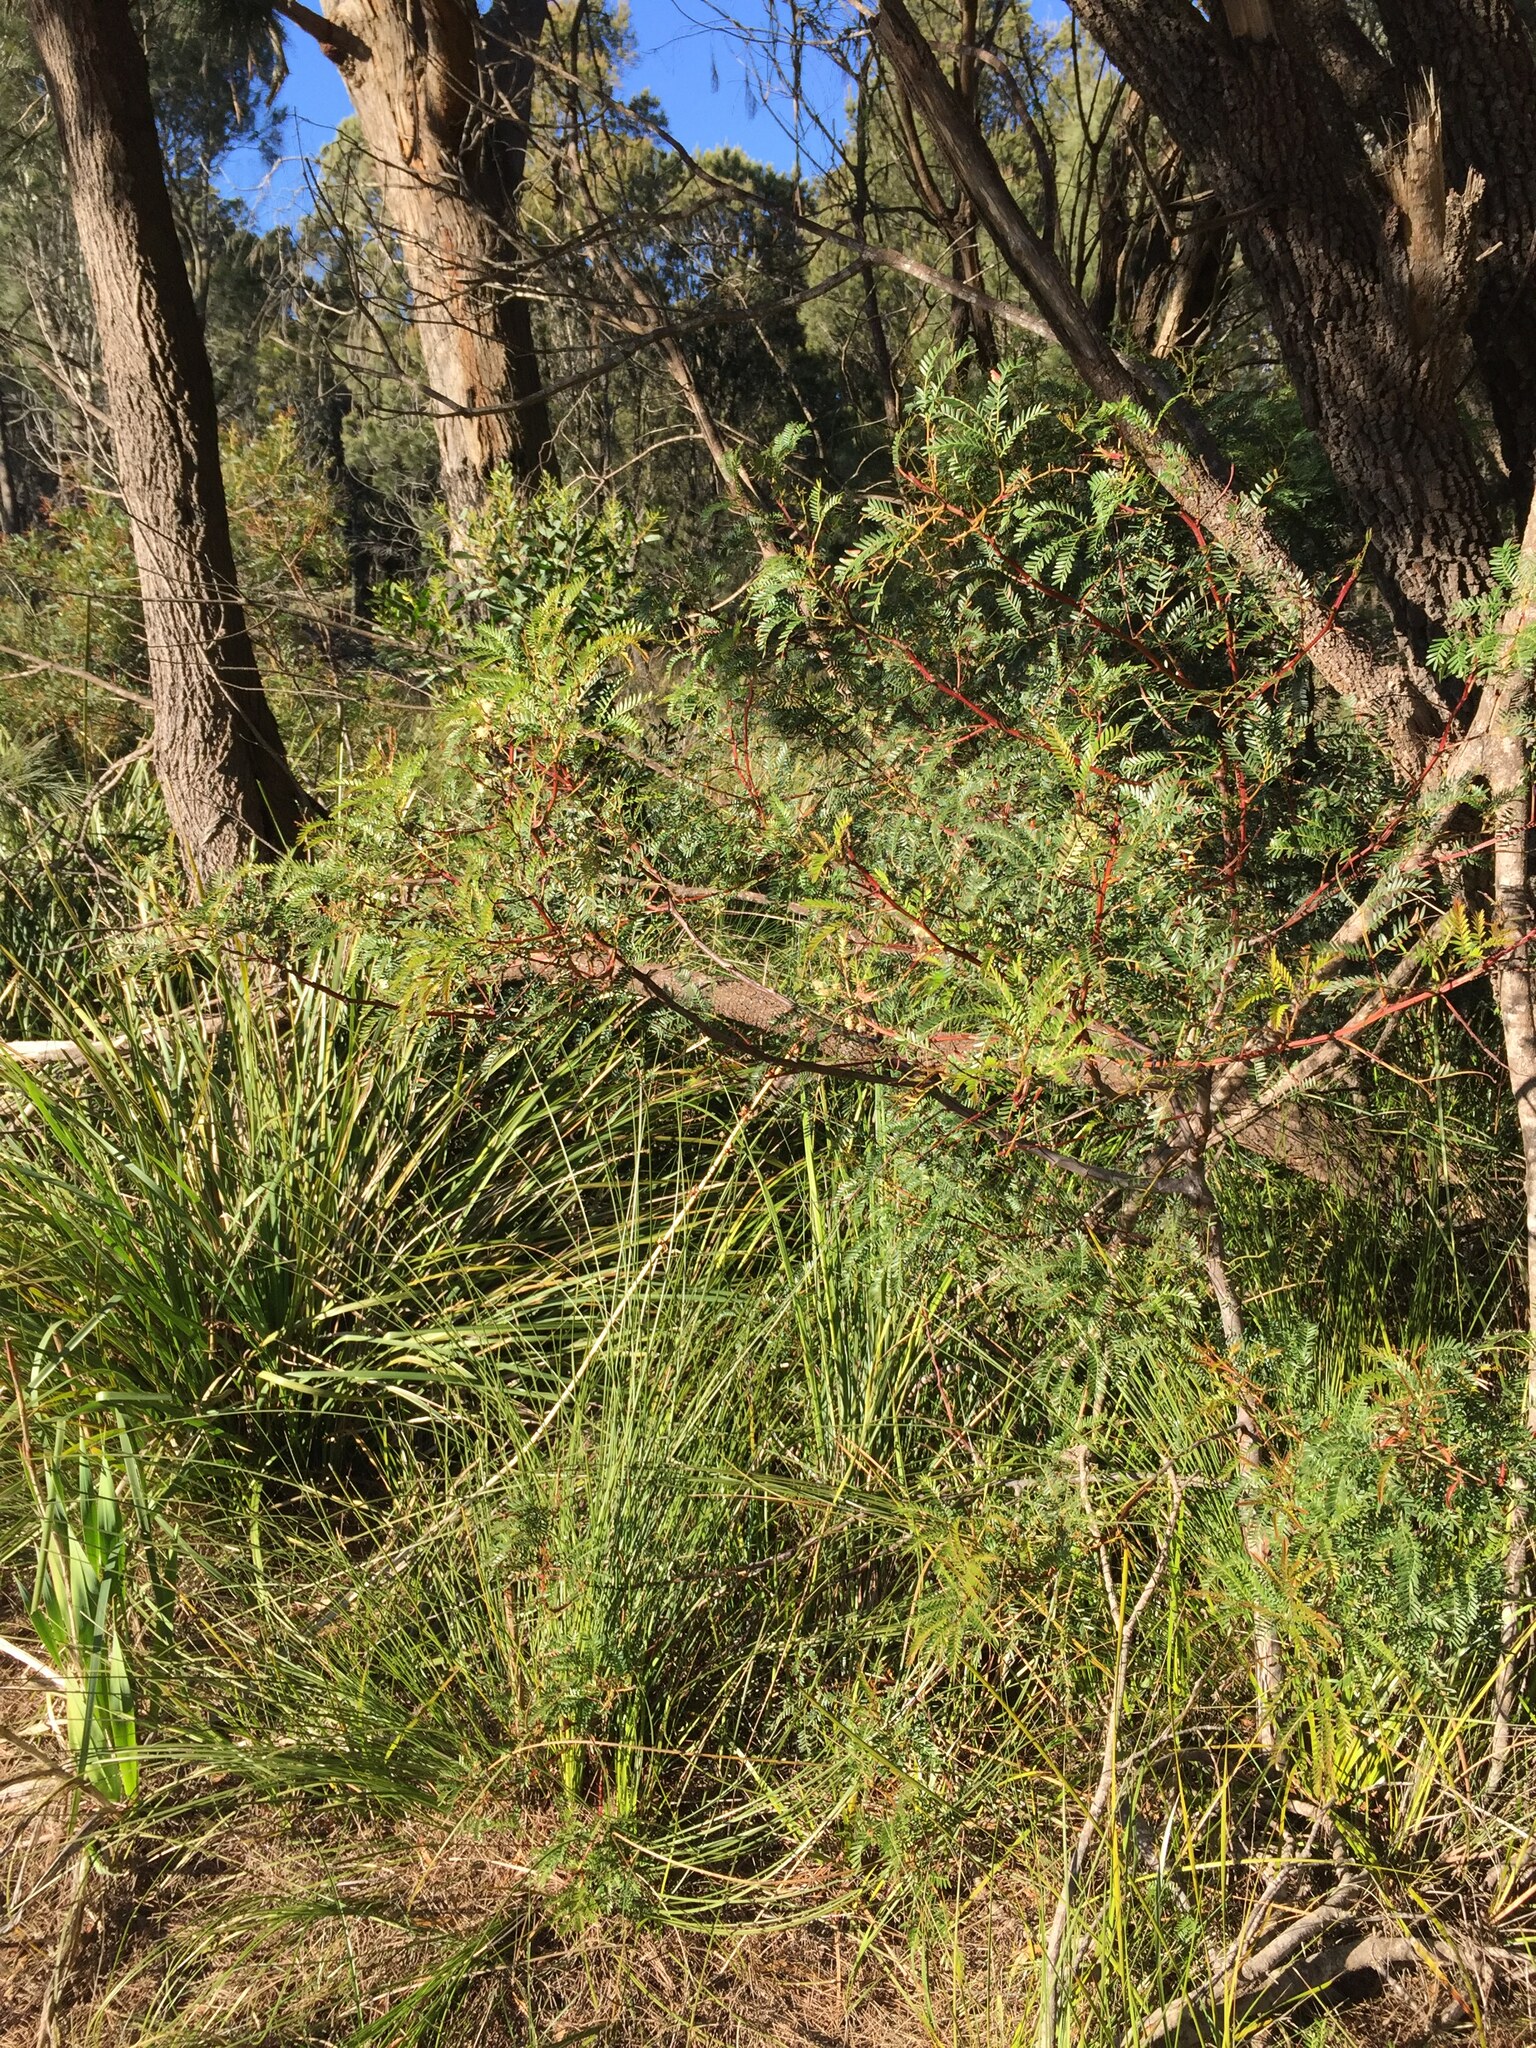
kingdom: Plantae
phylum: Tracheophyta
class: Magnoliopsida
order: Fabales
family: Fabaceae
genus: Acacia
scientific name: Acacia terminalis
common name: Cedar wattle
